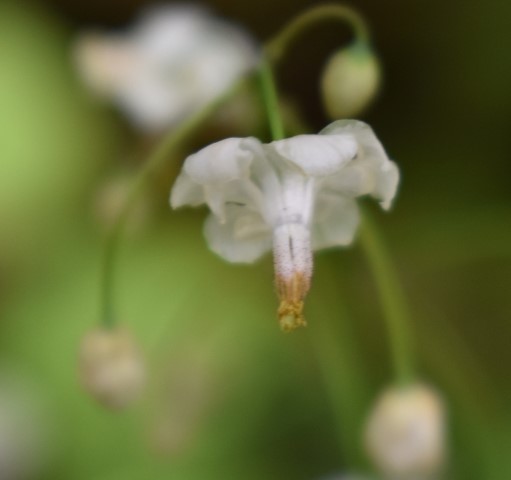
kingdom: Plantae
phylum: Tracheophyta
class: Magnoliopsida
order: Ranunculales
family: Berberidaceae
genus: Vancouveria
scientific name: Vancouveria hexandra
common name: Northern inside-out-flower
